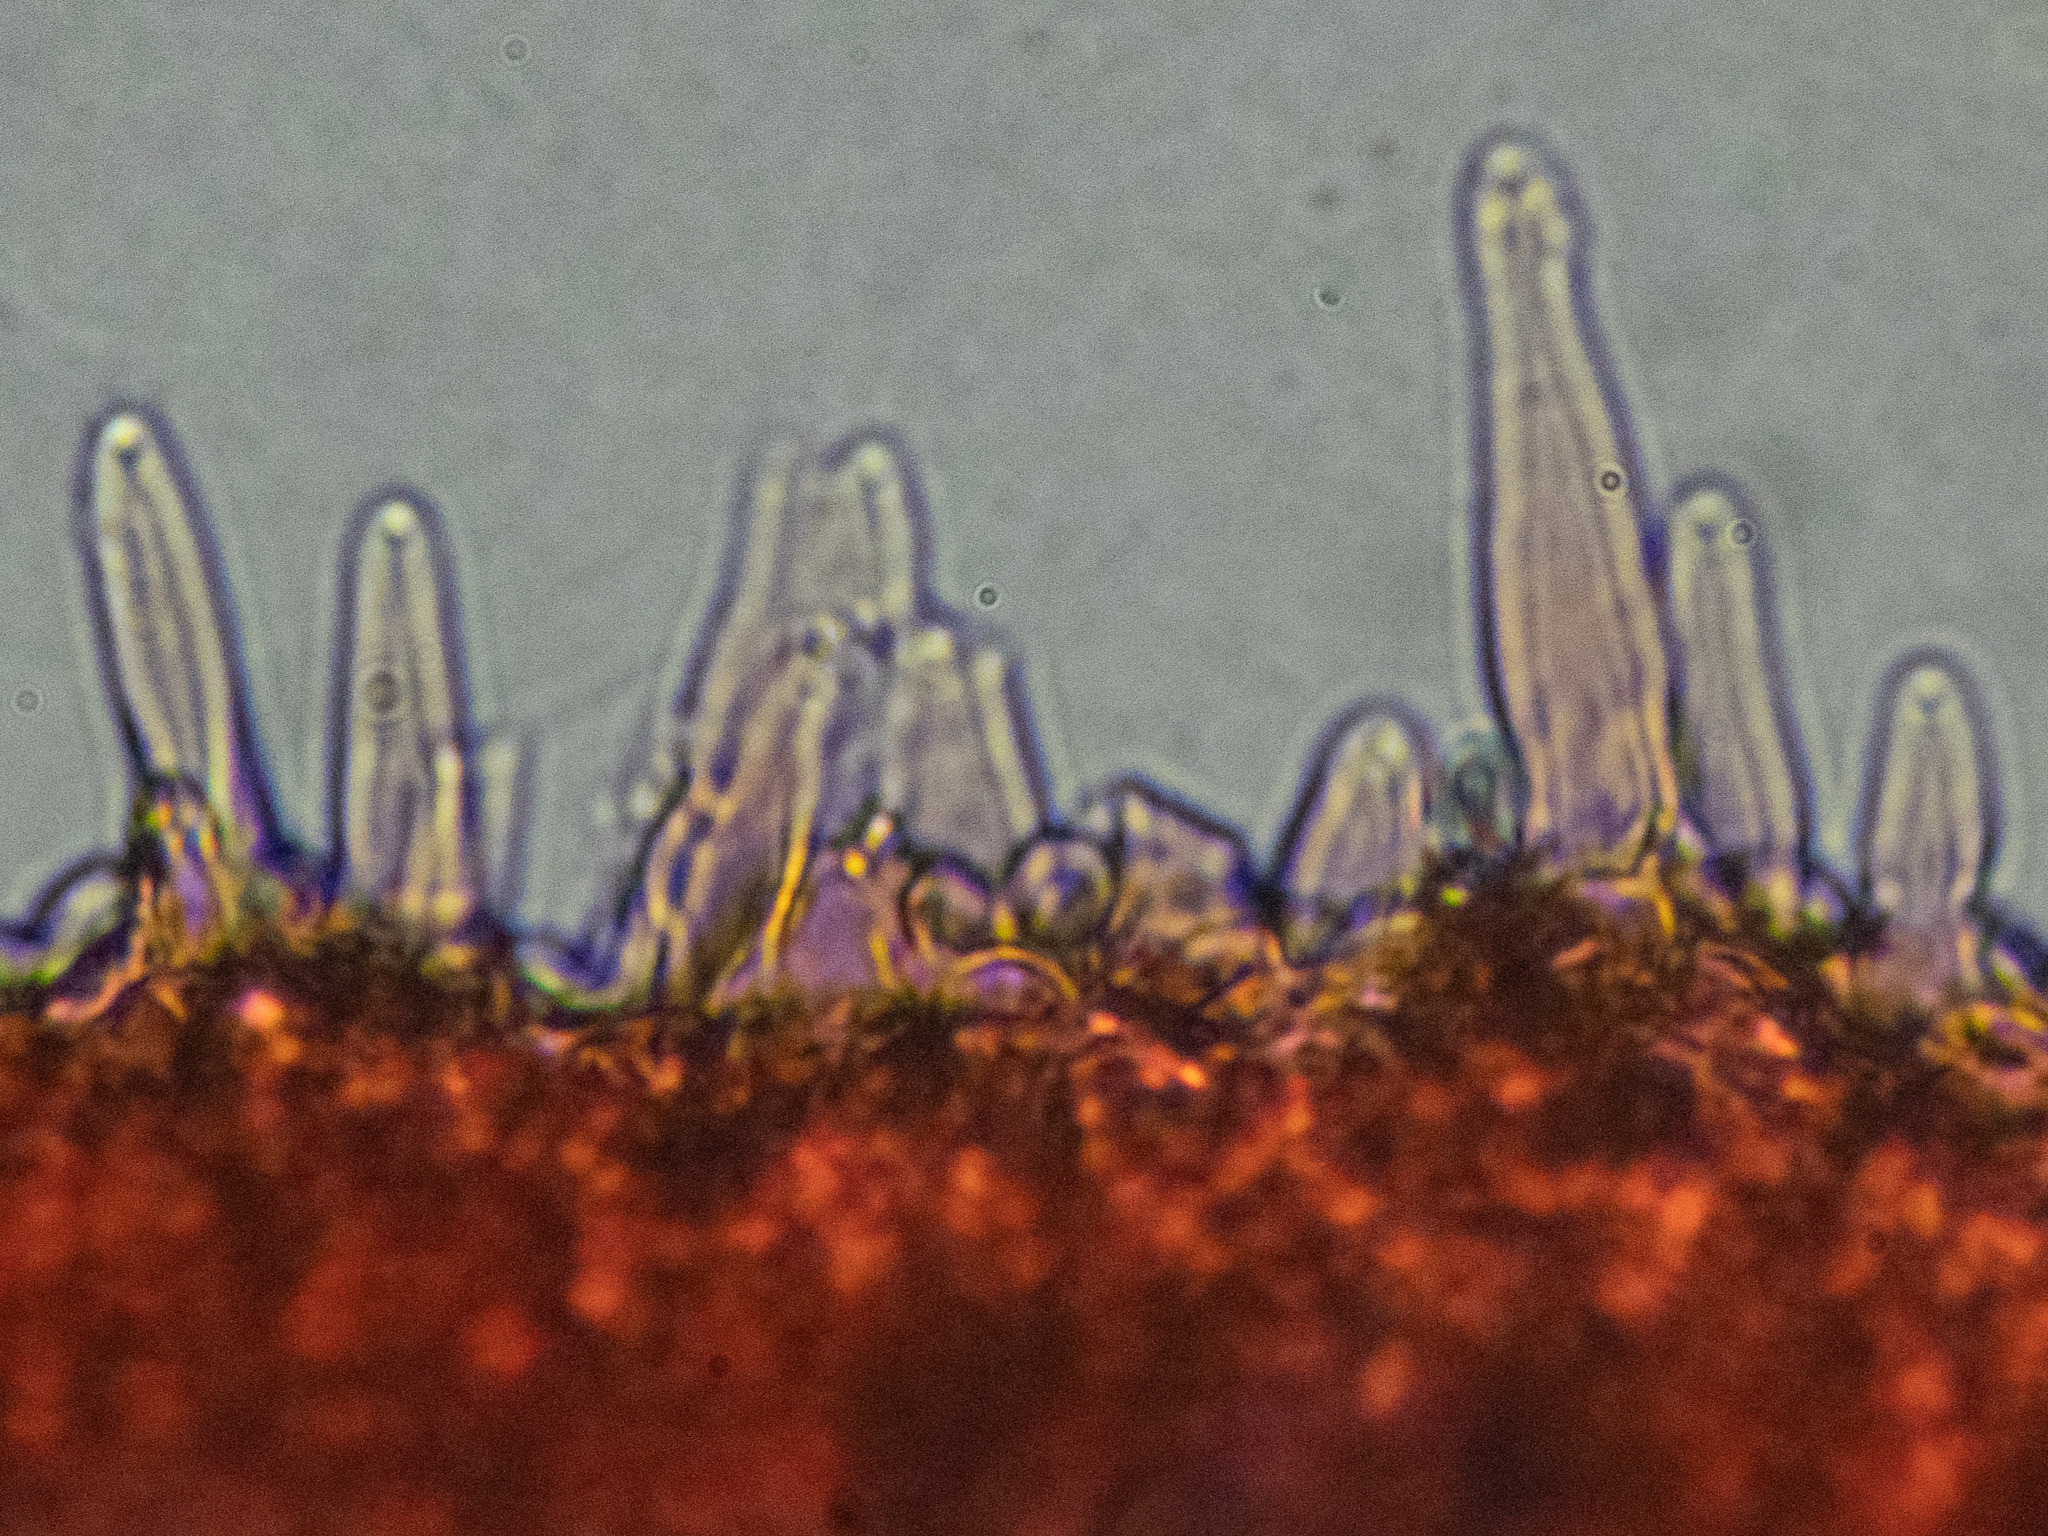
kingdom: Fungi
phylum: Basidiomycota
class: Agaricomycetes
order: Agaricales
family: Physalacriaceae
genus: Strobilurus
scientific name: Strobilurus tenacellus
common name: Pinecone cap
